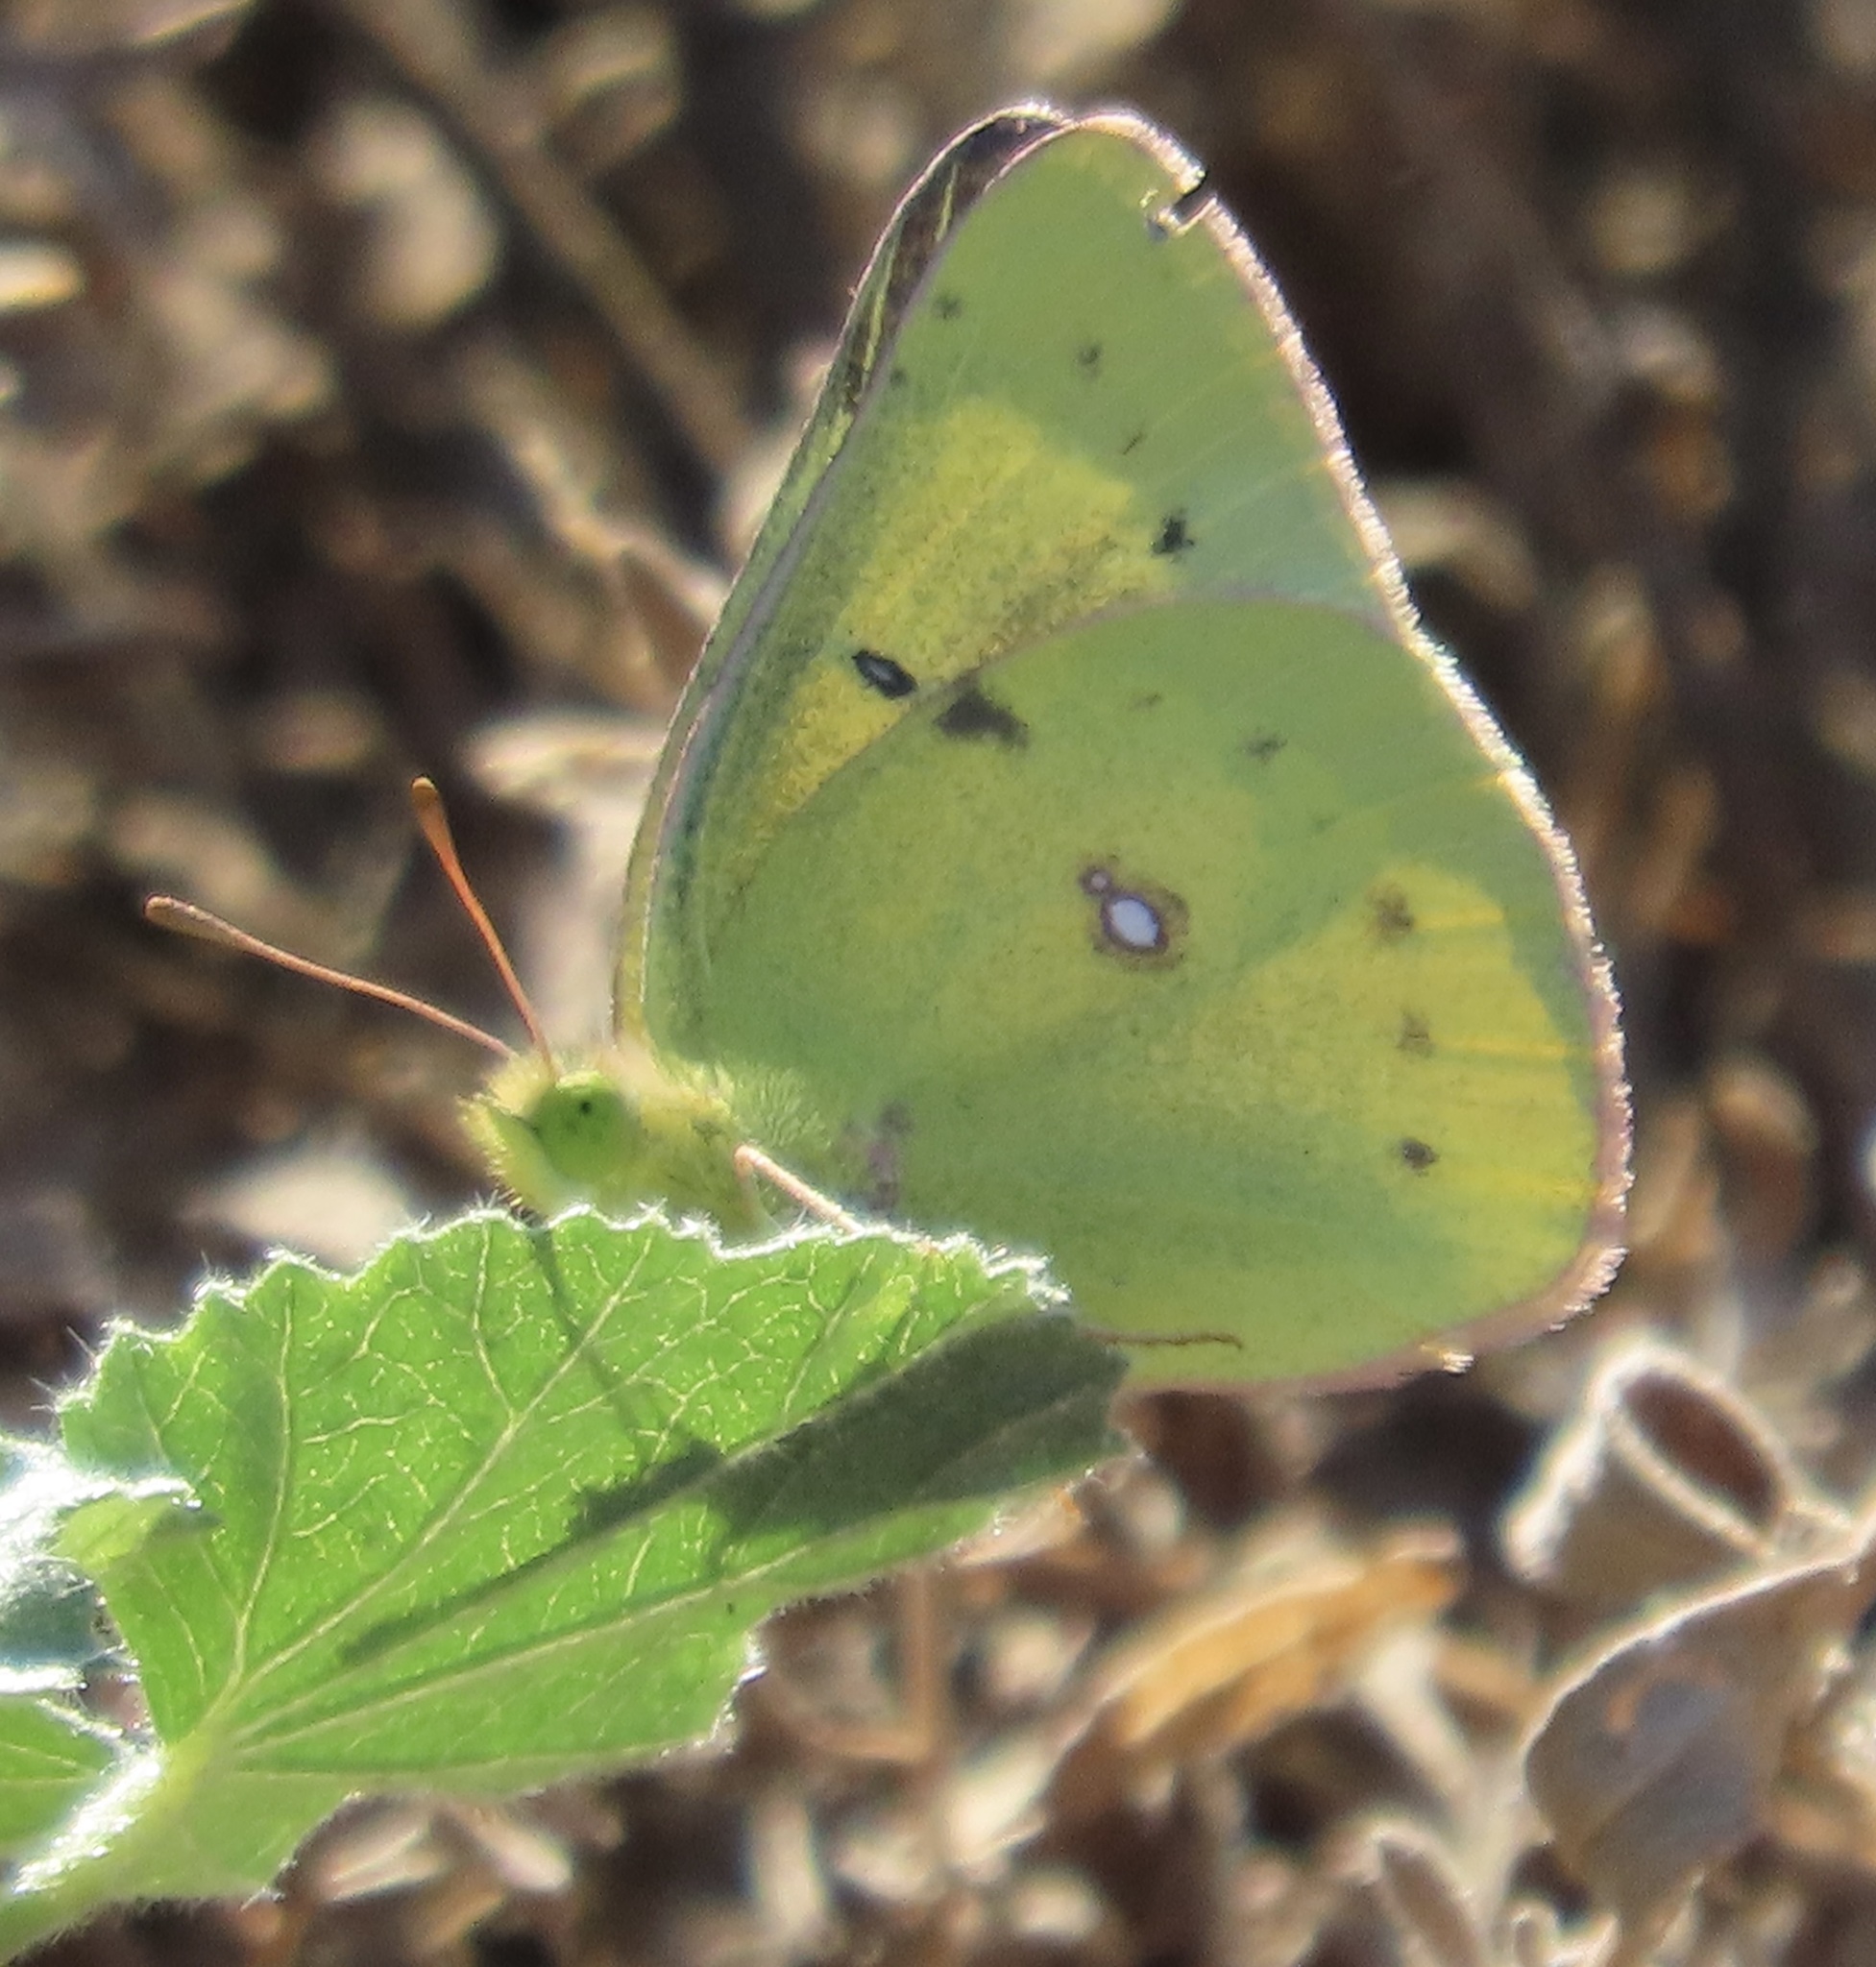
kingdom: Animalia
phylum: Arthropoda
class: Insecta
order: Lepidoptera
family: Pieridae
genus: Colias
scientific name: Colias eurytheme
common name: Alfalfa butterfly
